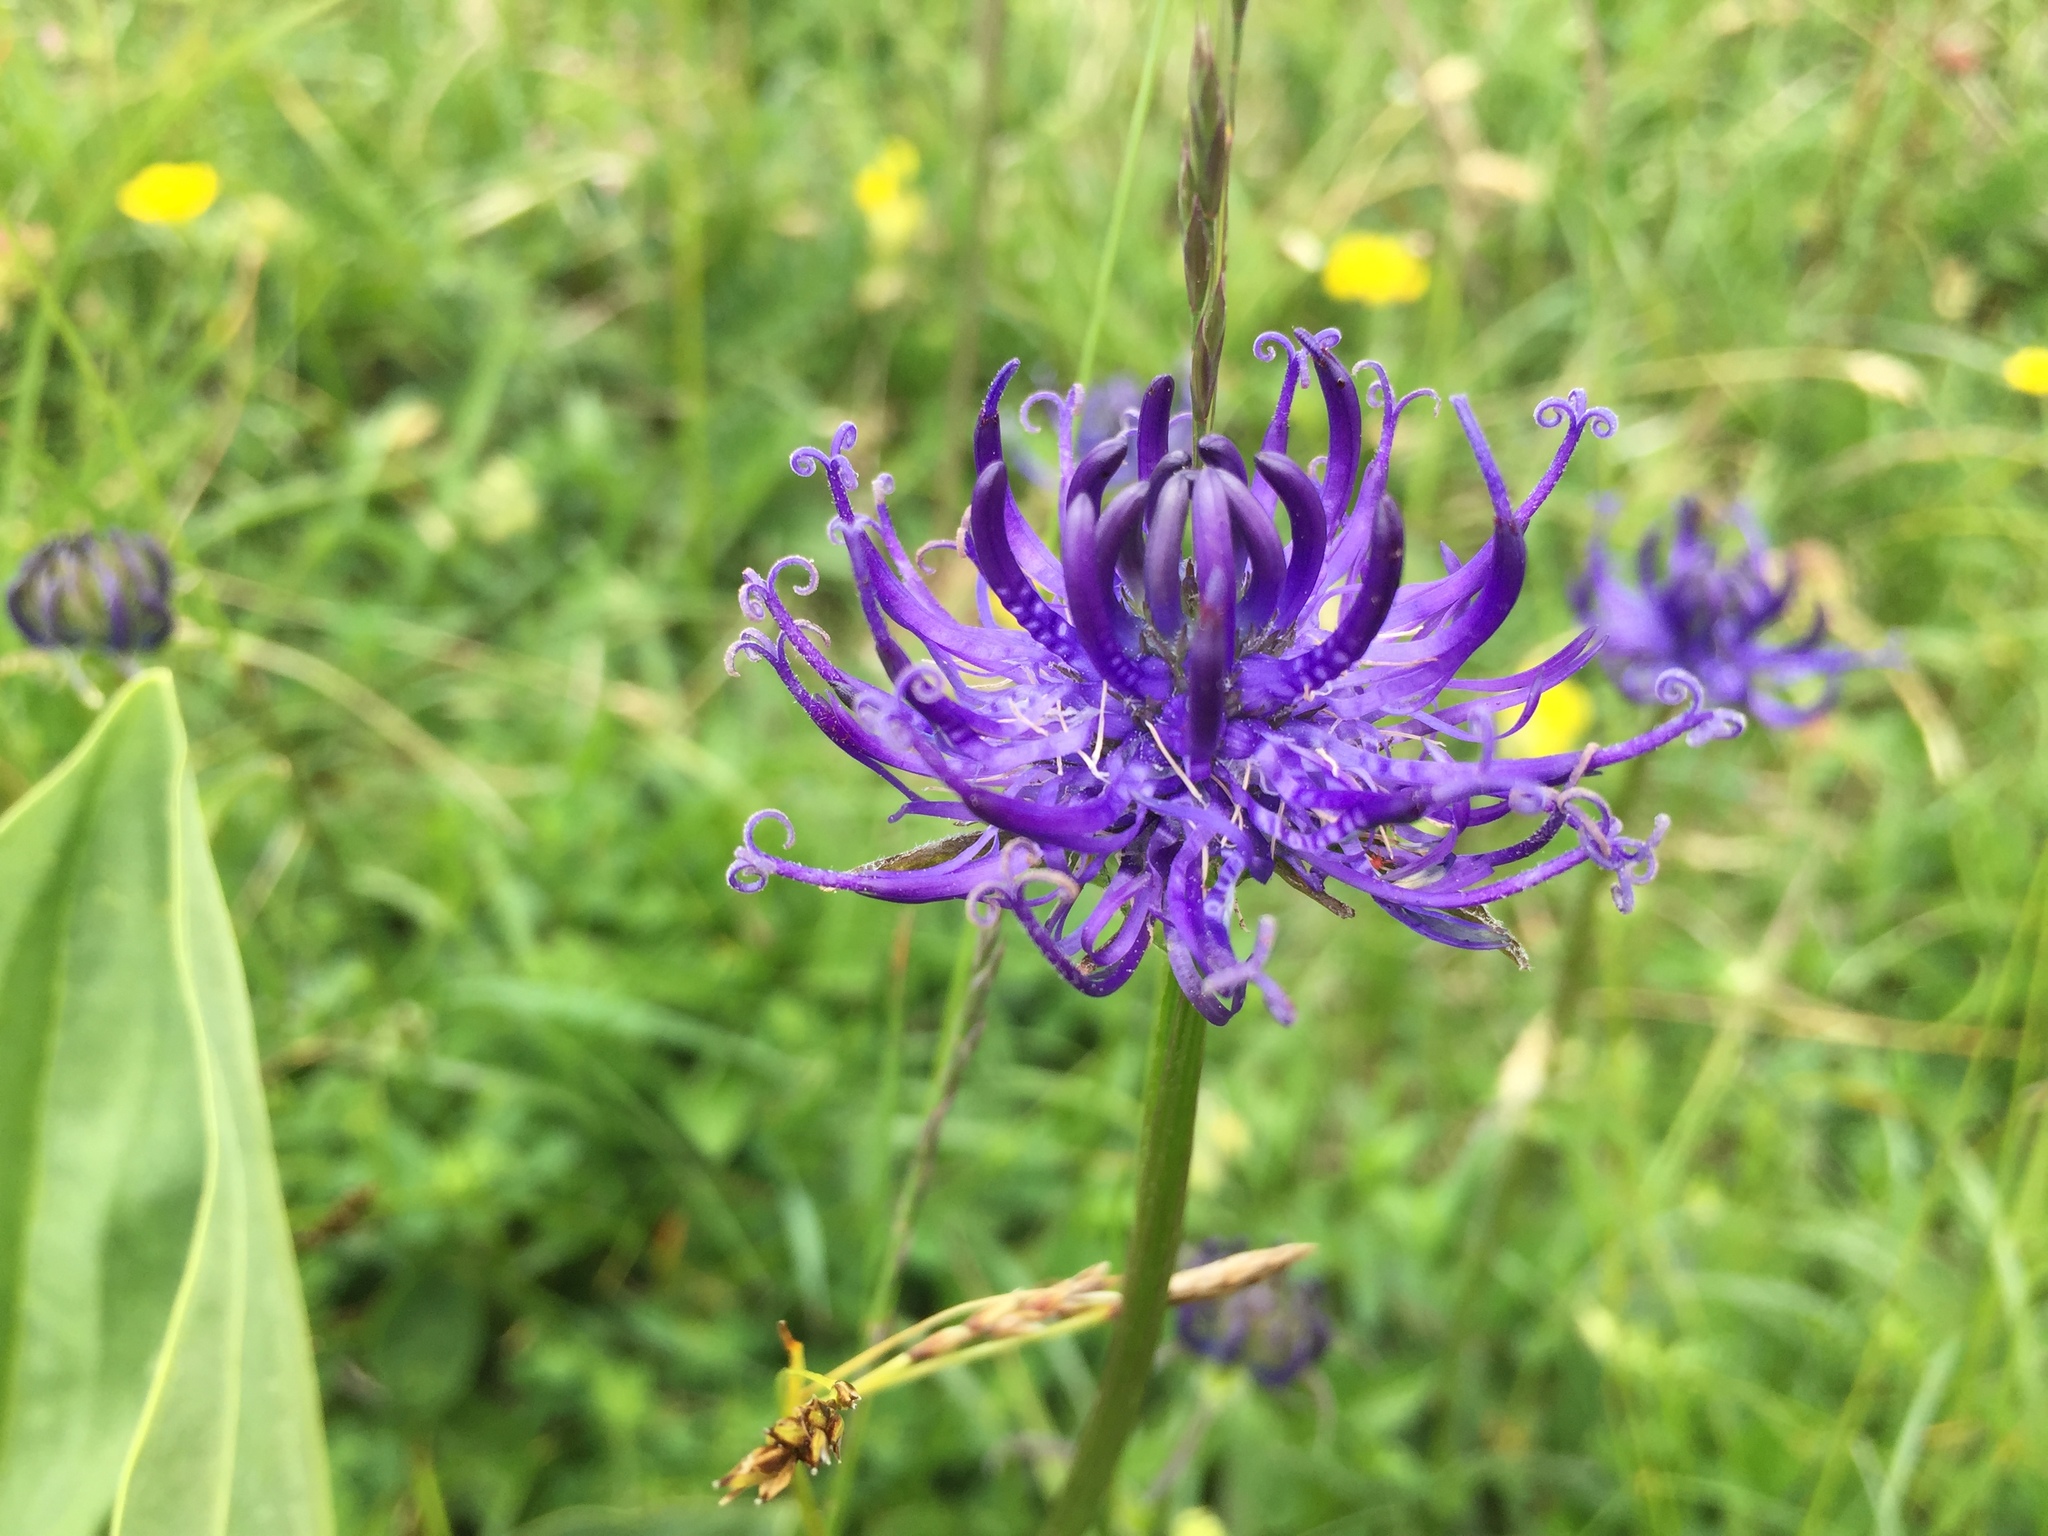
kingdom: Plantae
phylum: Tracheophyta
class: Magnoliopsida
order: Asterales
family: Campanulaceae
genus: Phyteuma
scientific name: Phyteuma orbiculare
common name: Round-headed rampion
